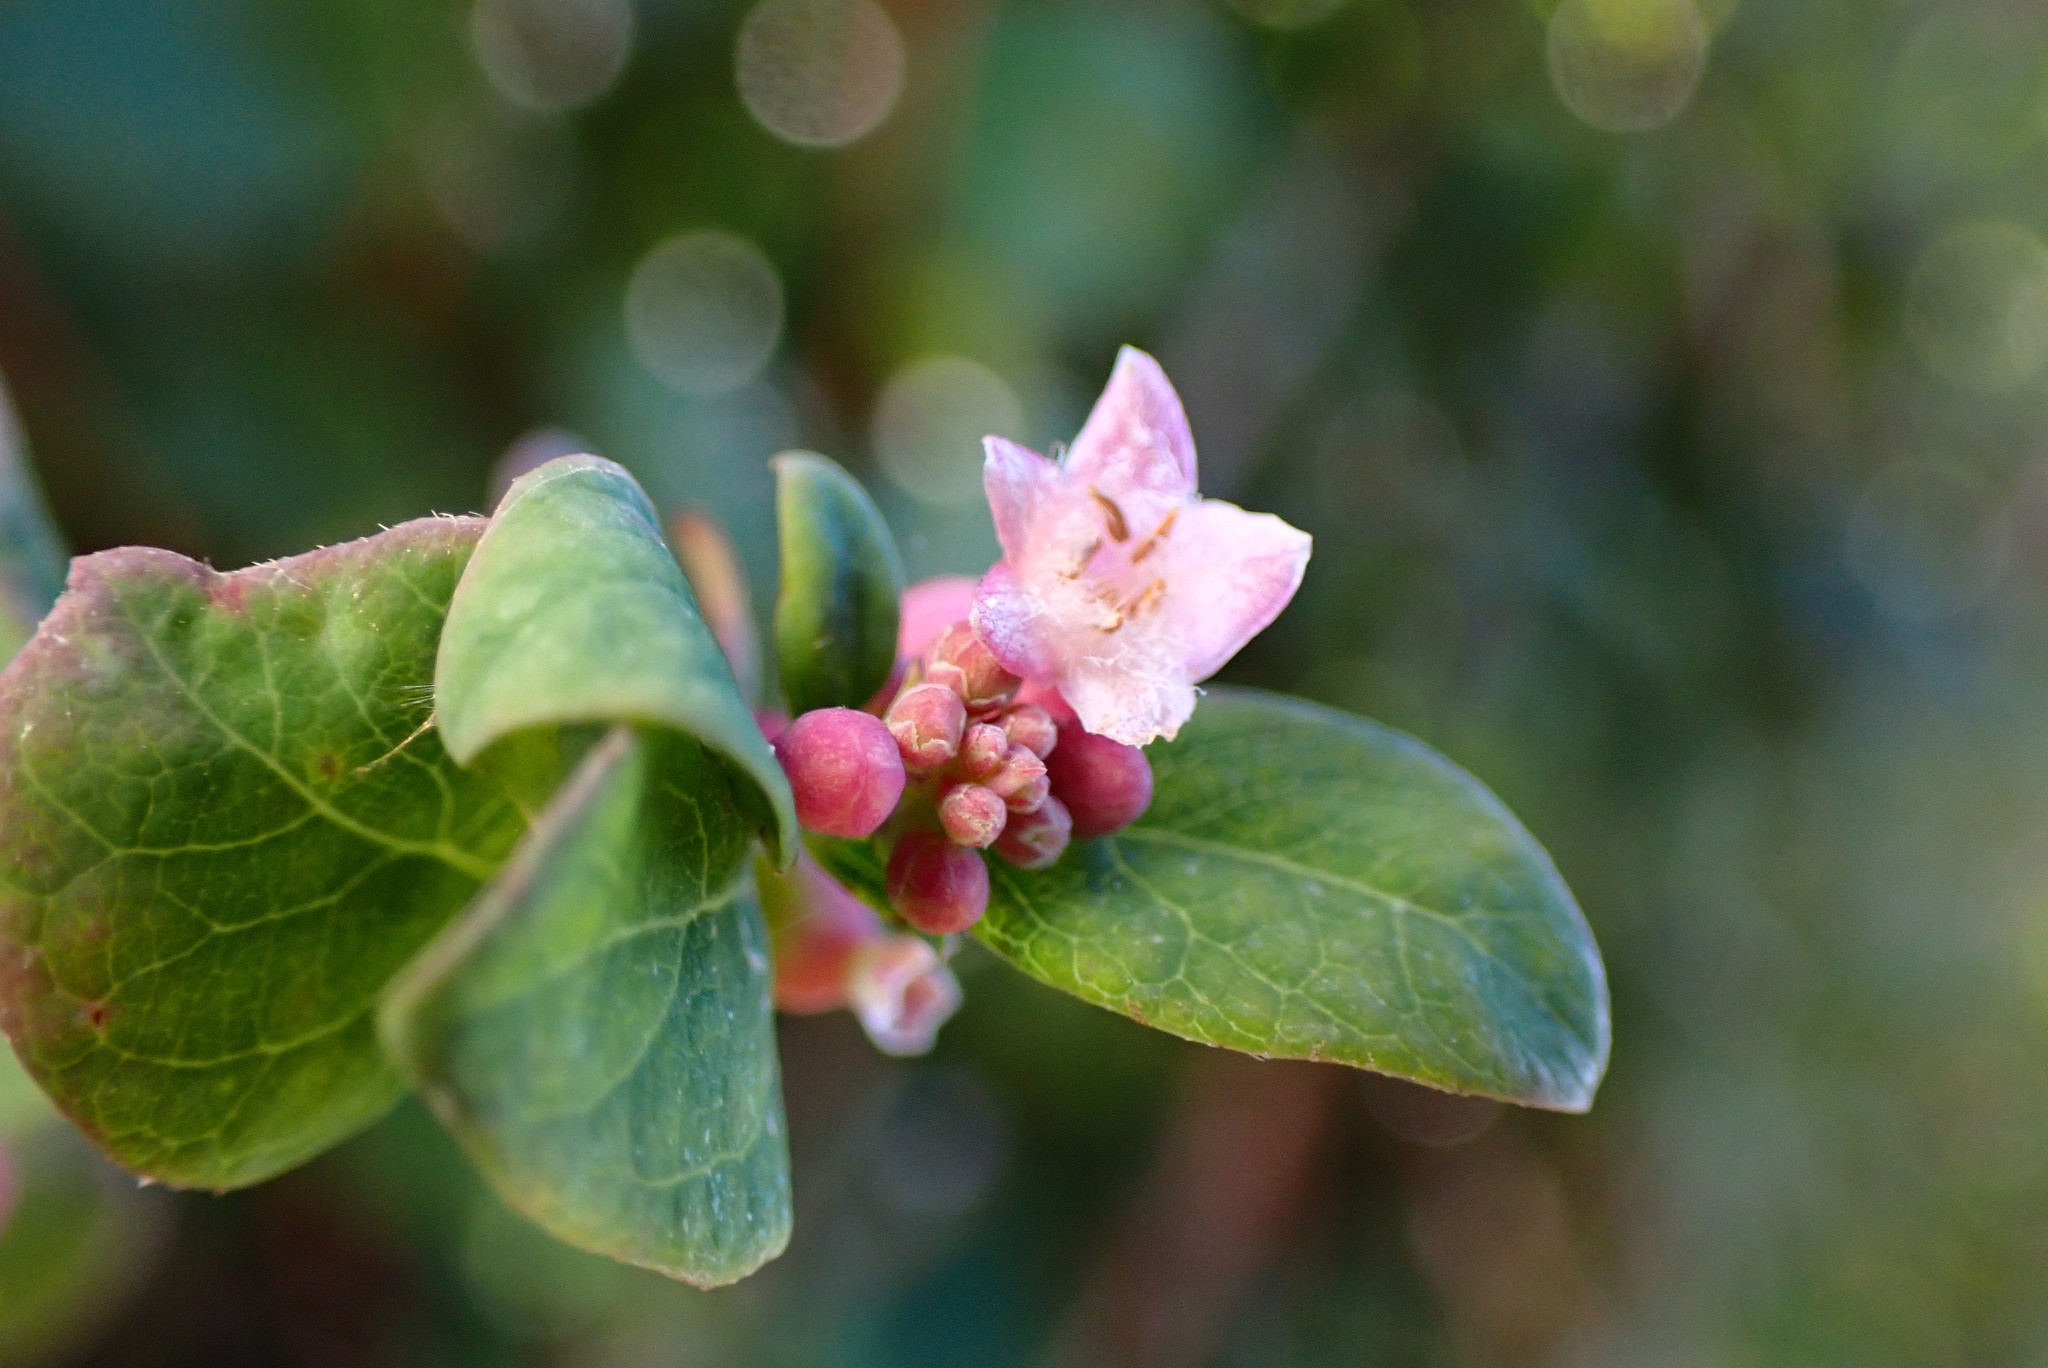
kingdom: Plantae
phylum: Tracheophyta
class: Magnoliopsida
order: Dipsacales
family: Caprifoliaceae
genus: Symphoricarpos
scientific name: Symphoricarpos albus
